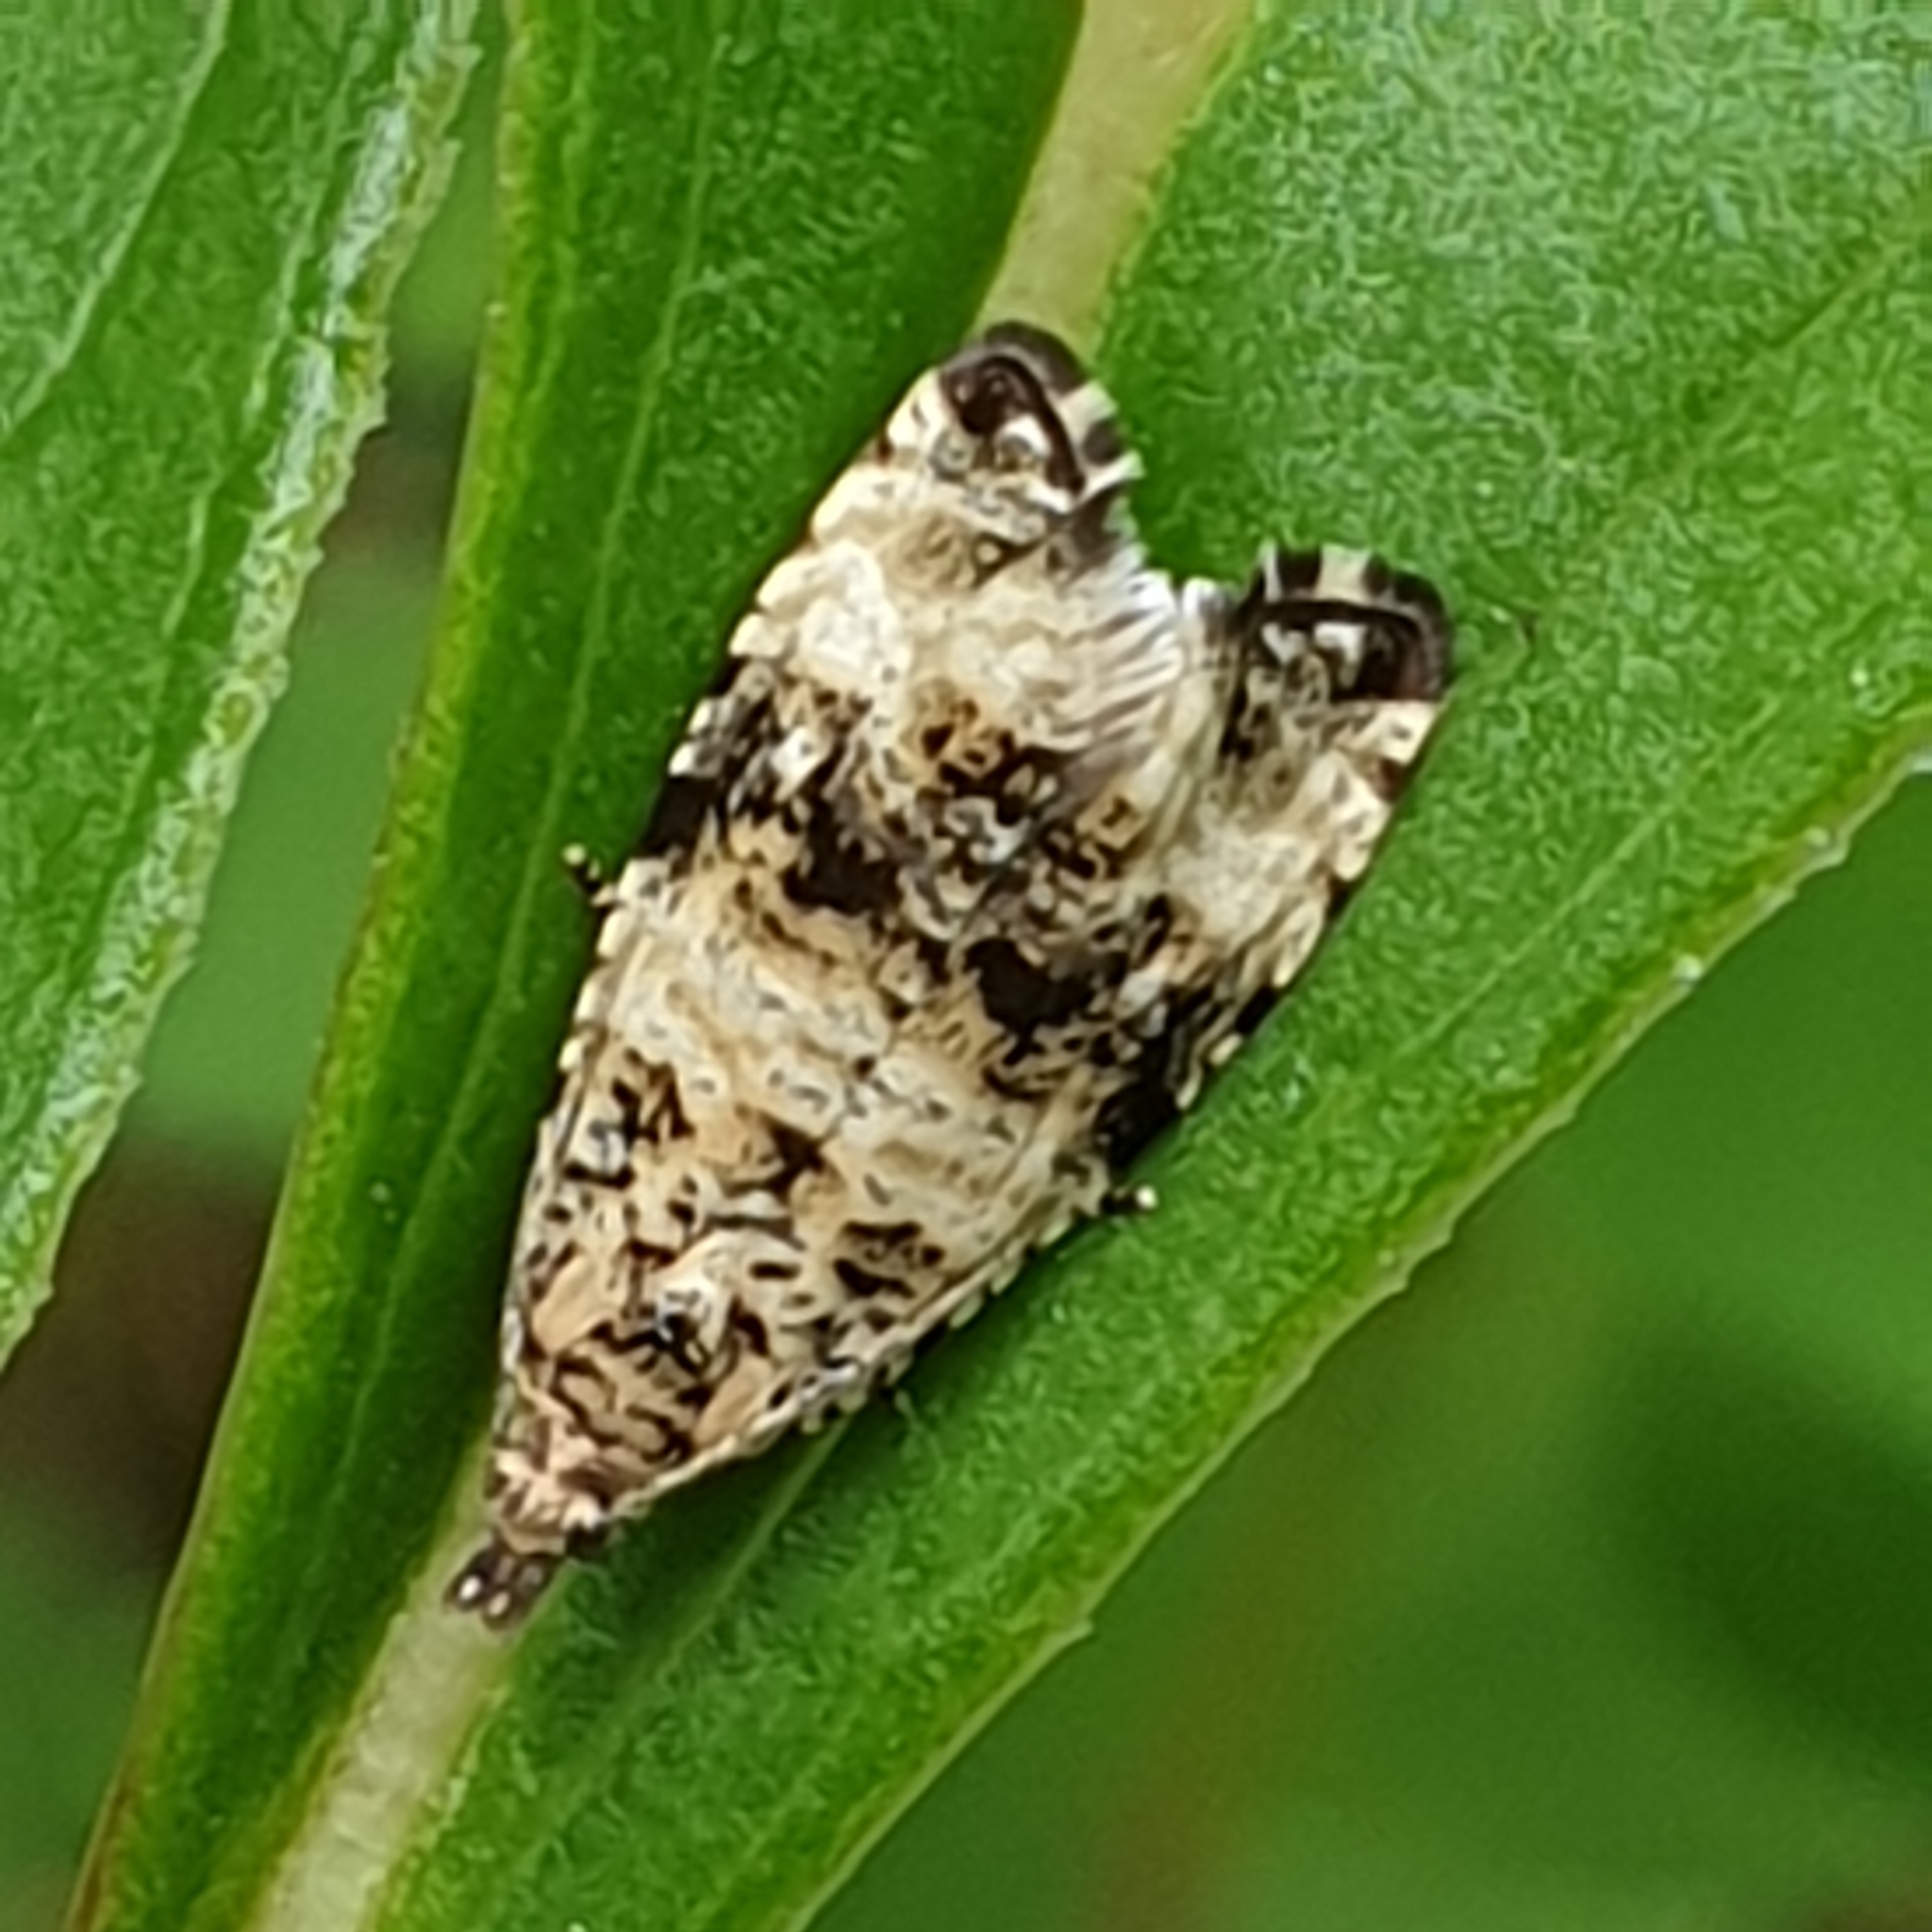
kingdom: Animalia
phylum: Arthropoda
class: Insecta
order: Lepidoptera
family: Tortricidae
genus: Syricoris
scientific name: Syricoris lacunana
